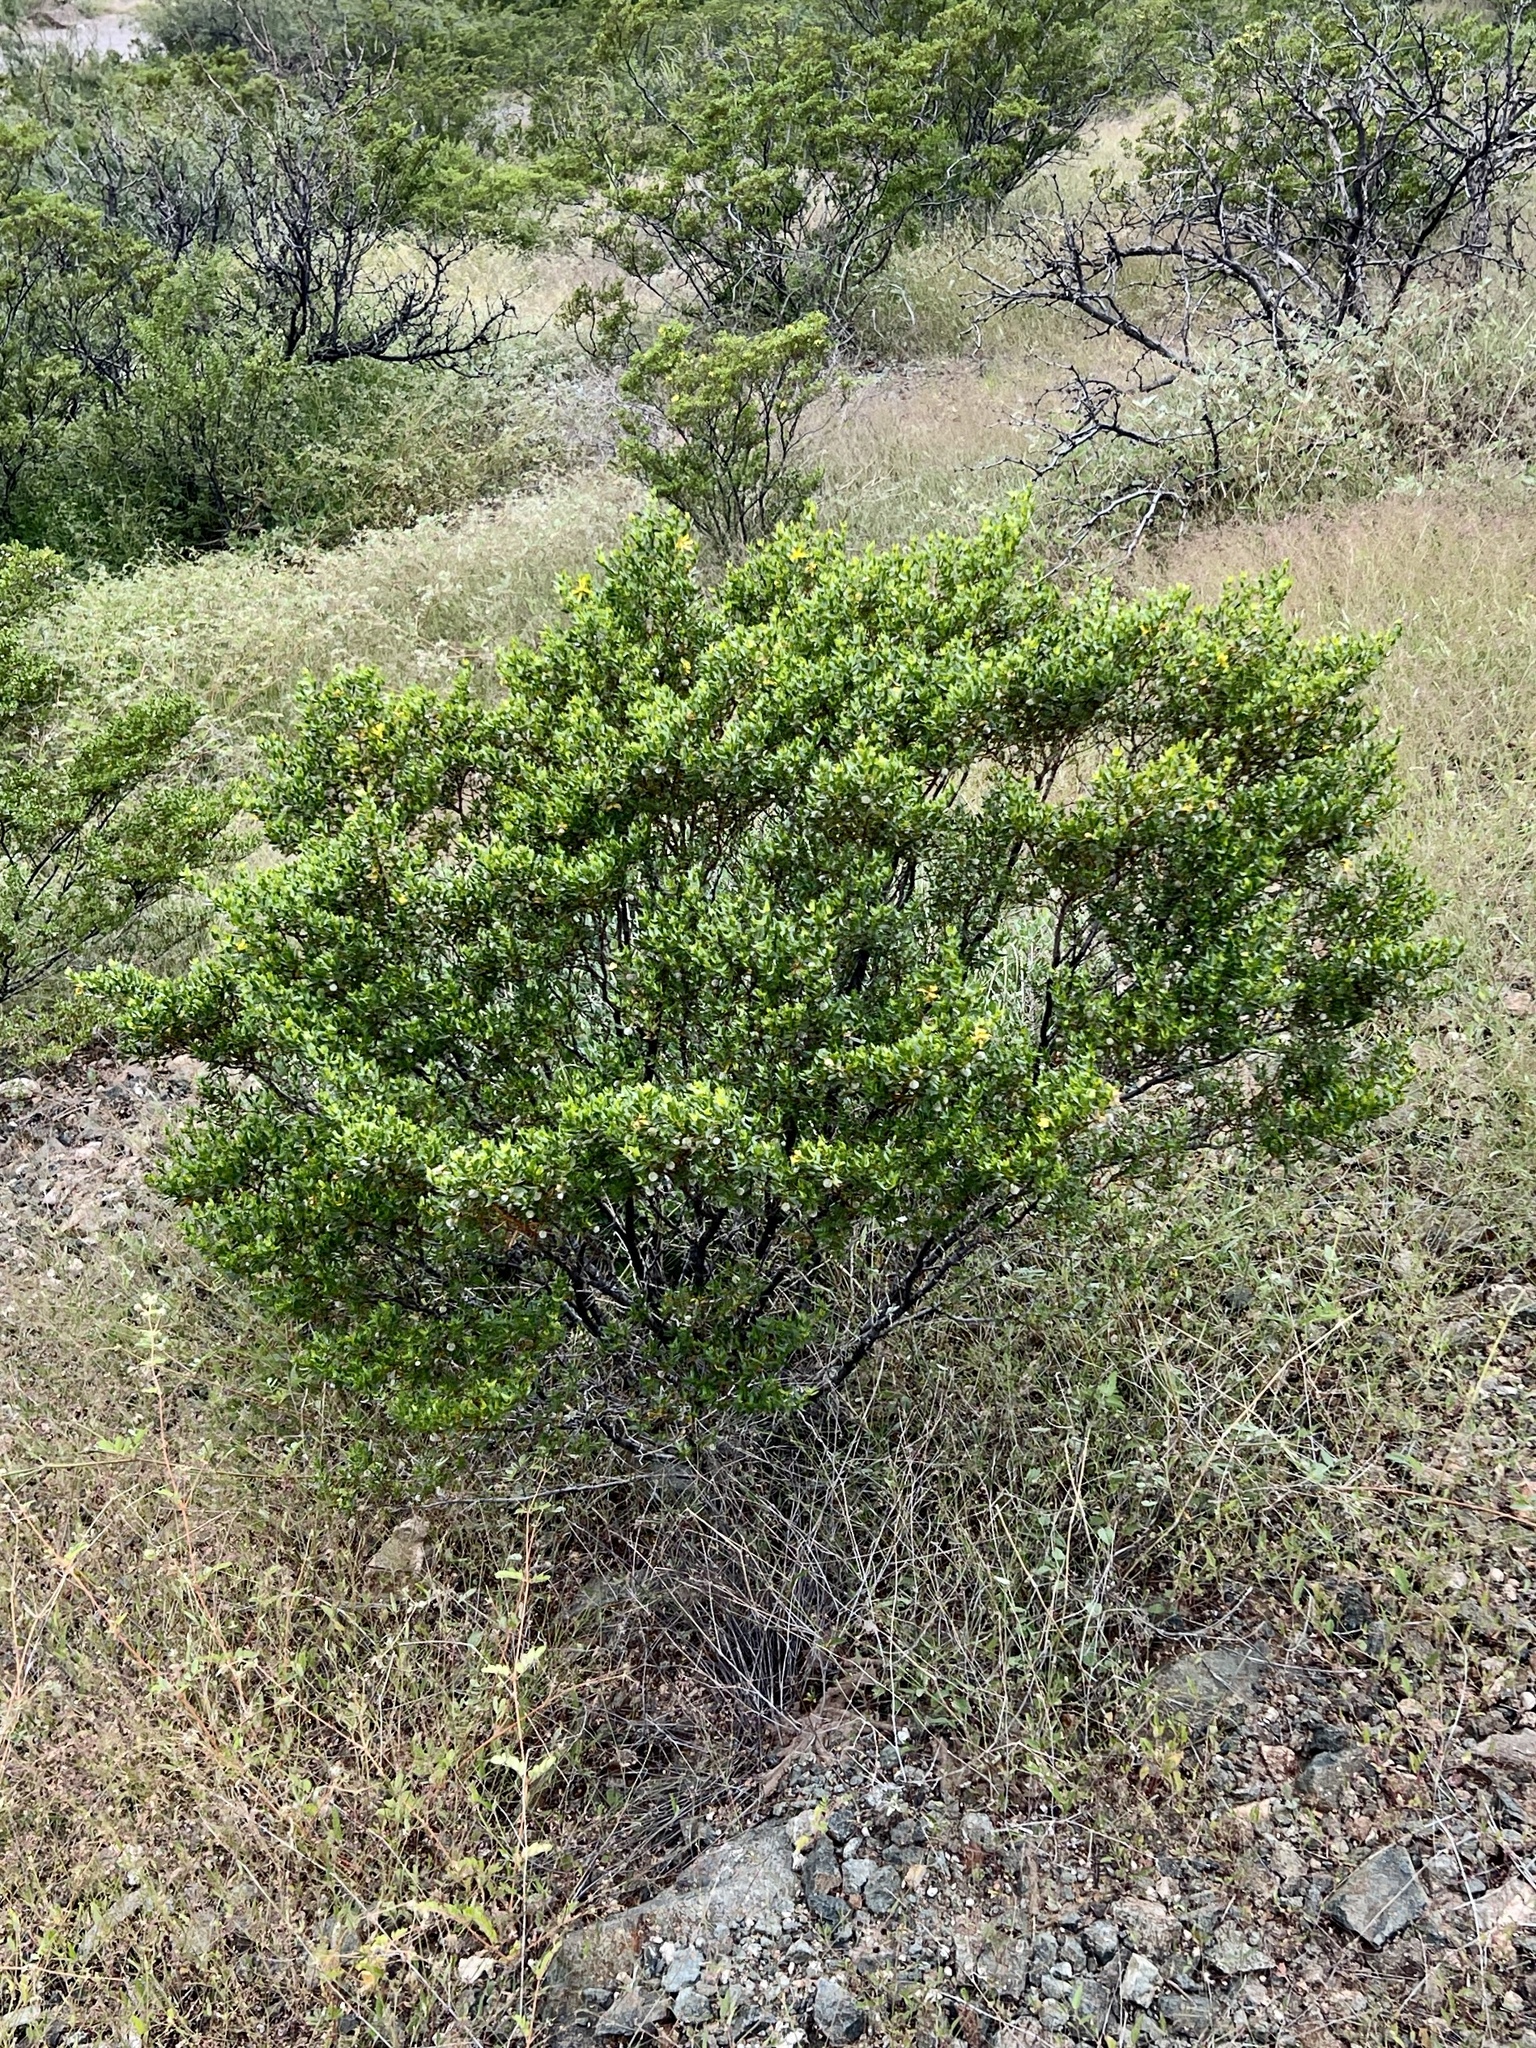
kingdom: Plantae
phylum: Tracheophyta
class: Magnoliopsida
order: Zygophyllales
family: Zygophyllaceae
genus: Larrea
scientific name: Larrea tridentata
